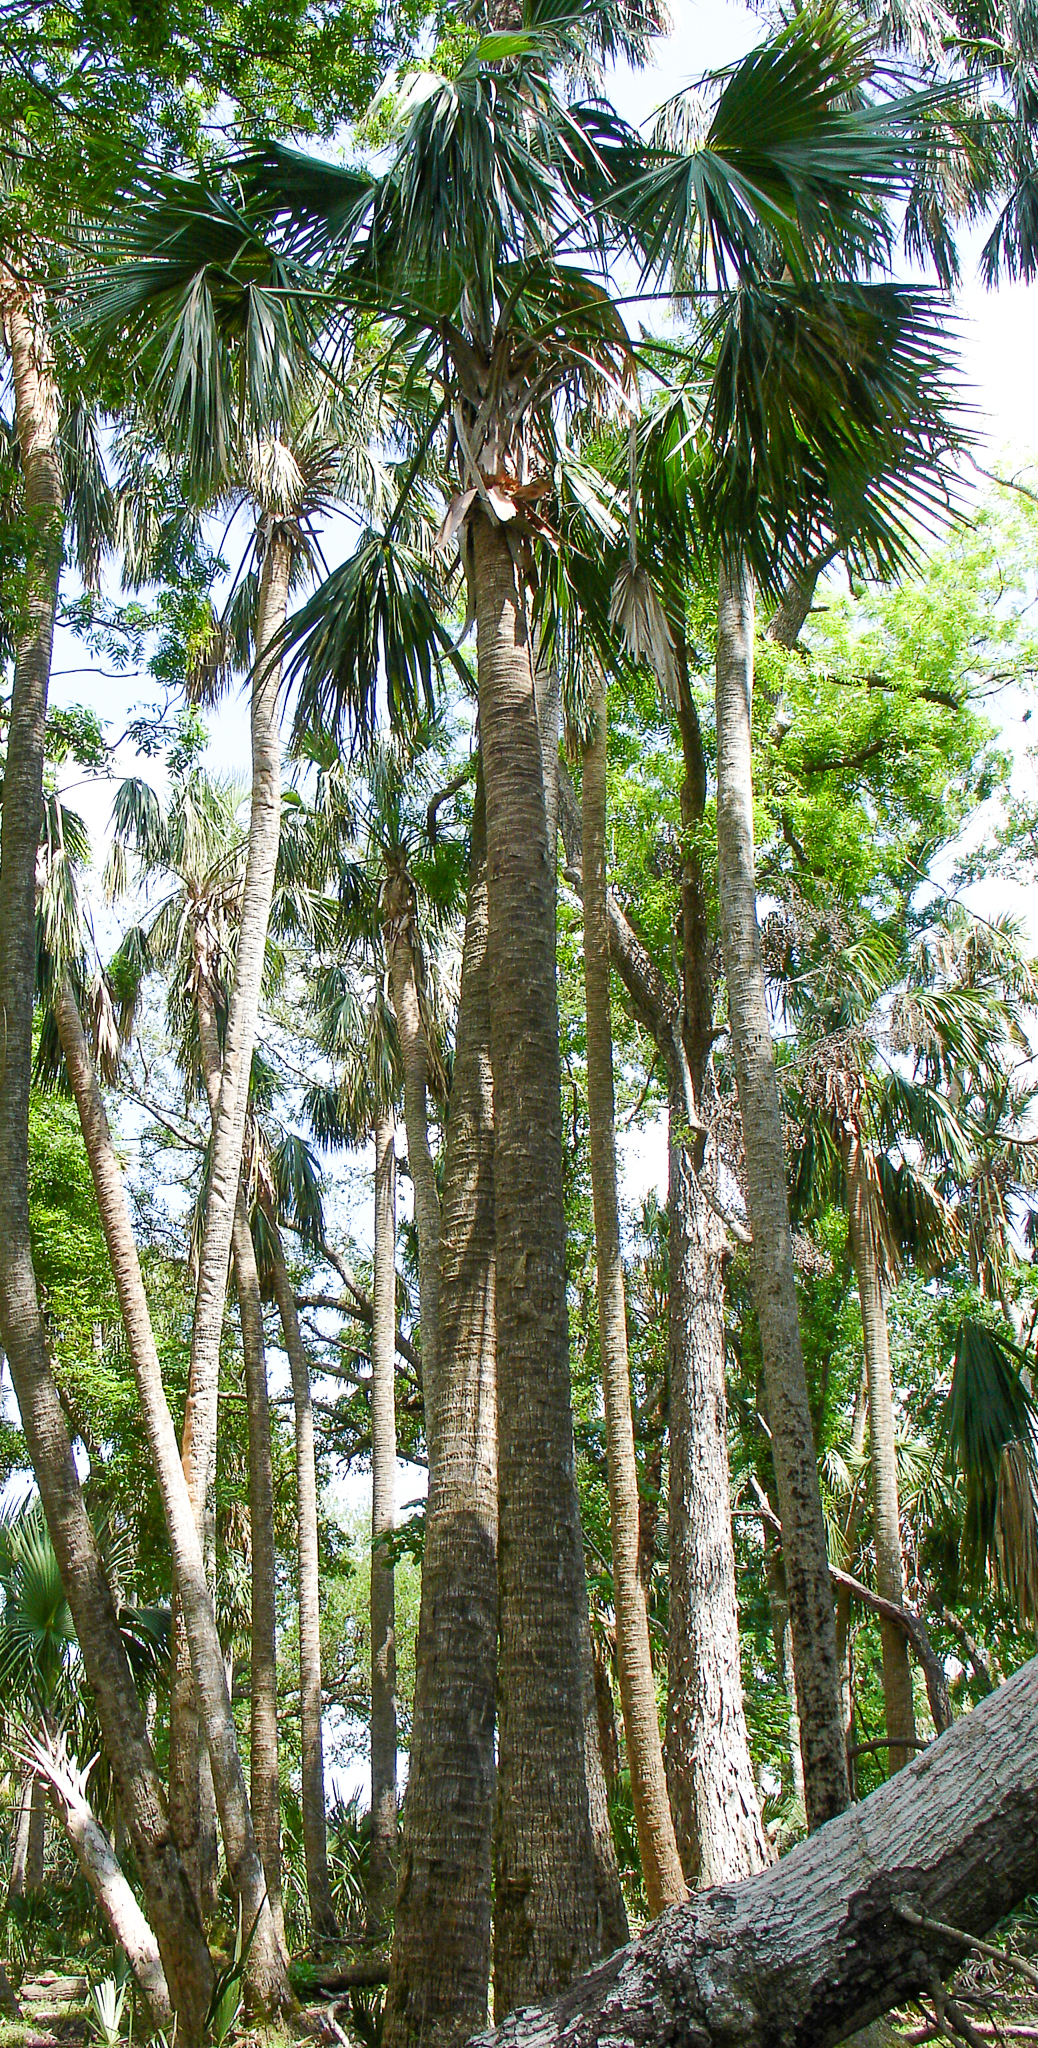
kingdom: Plantae
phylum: Tracheophyta
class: Liliopsida
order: Arecales
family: Arecaceae
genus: Sabal
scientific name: Sabal palmetto
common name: Blue palmetto
